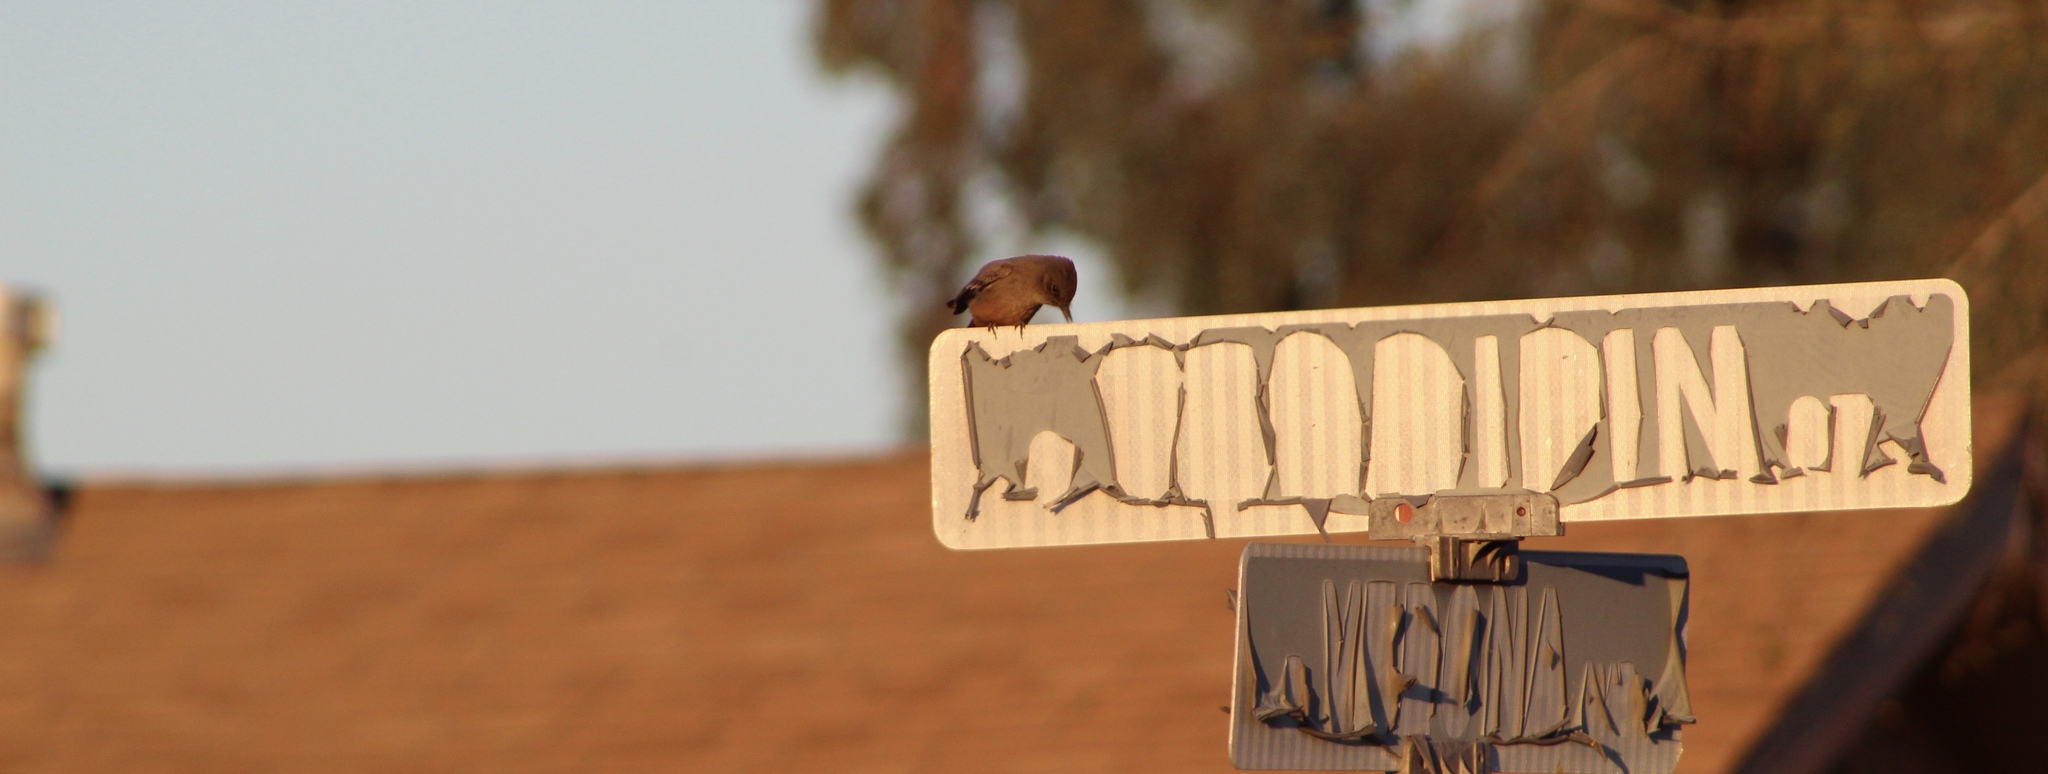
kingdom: Animalia
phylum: Chordata
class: Aves
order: Passeriformes
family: Tyrannidae
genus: Sayornis
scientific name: Sayornis saya
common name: Say's phoebe
